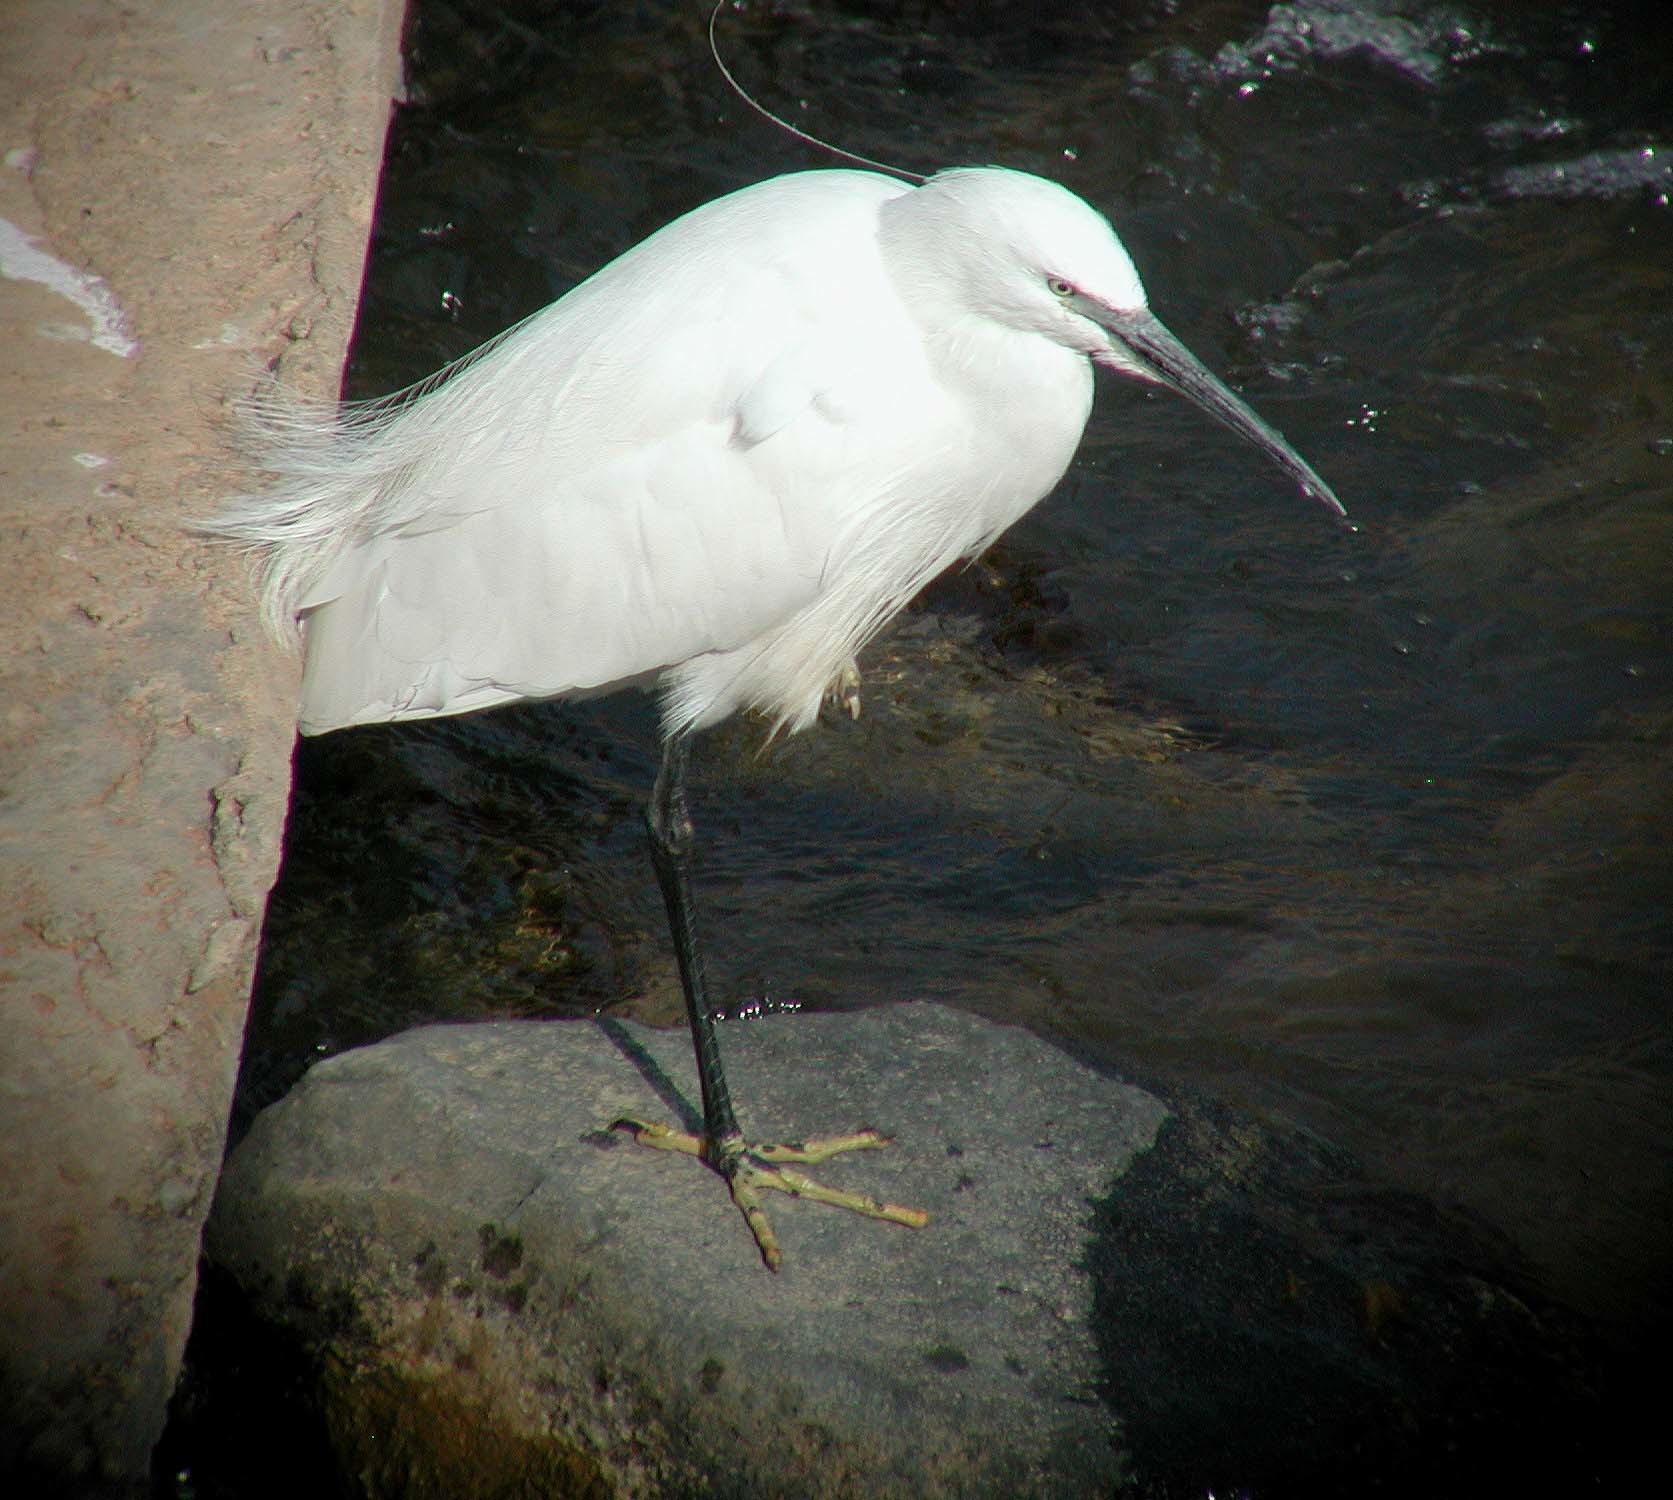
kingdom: Animalia
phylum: Chordata
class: Aves
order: Pelecaniformes
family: Ardeidae
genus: Egretta
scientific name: Egretta garzetta
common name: Little egret
